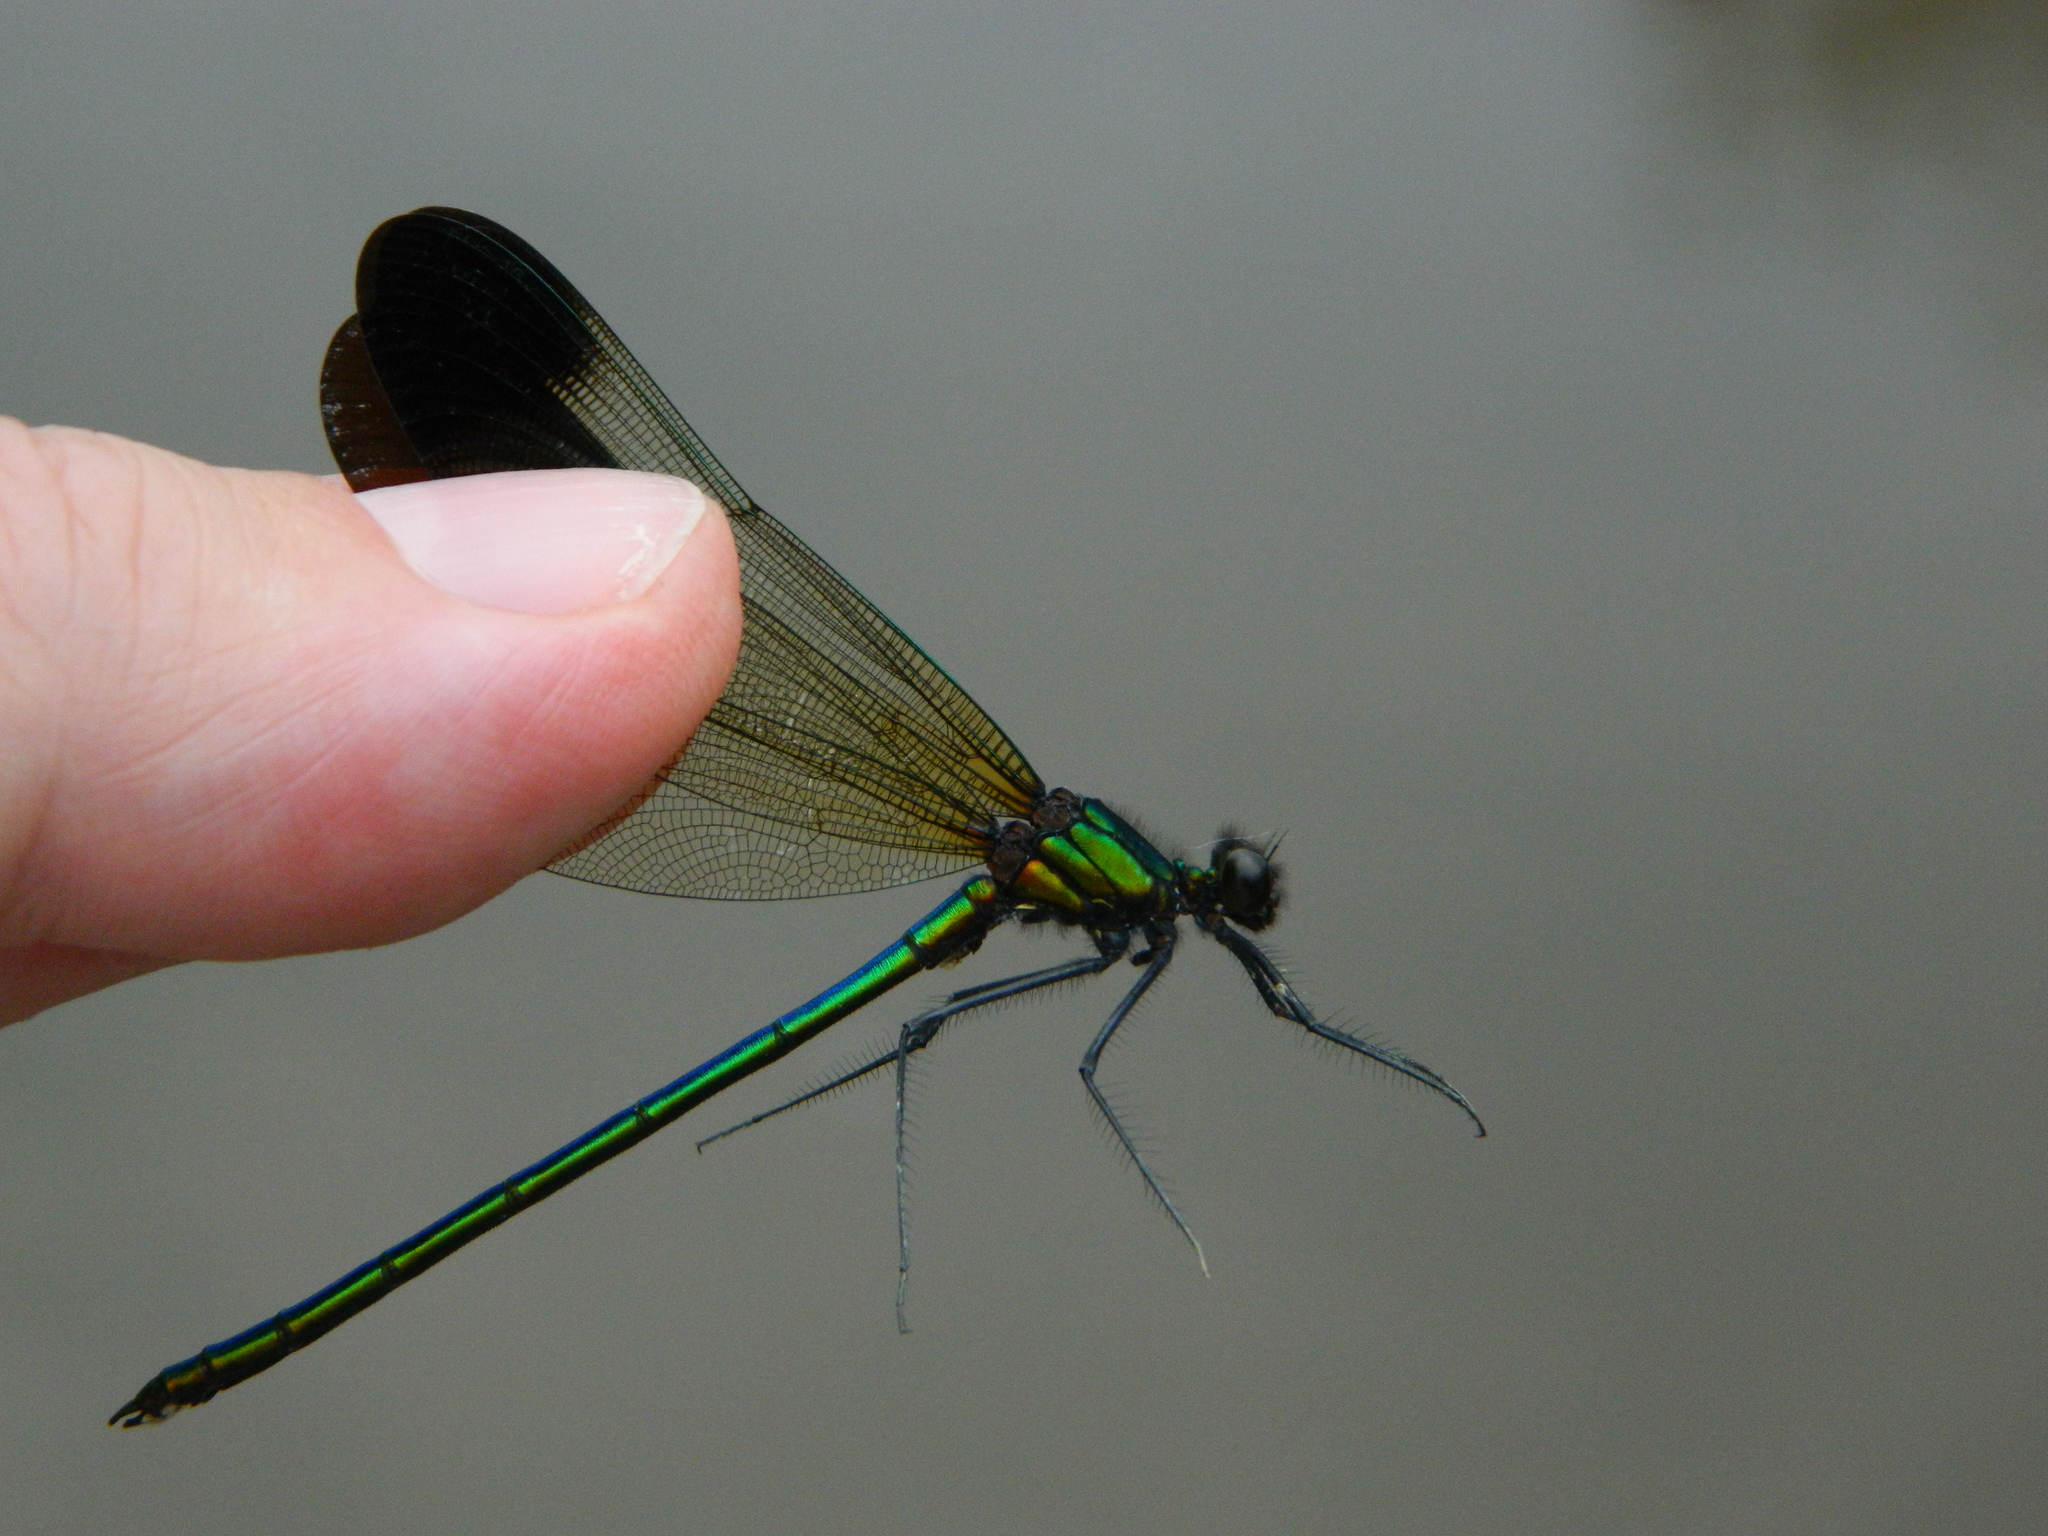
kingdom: Animalia
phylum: Arthropoda
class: Insecta
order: Odonata
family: Calopterygidae
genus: Calopteryx
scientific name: Calopteryx aequabilis
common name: River jewelwing
